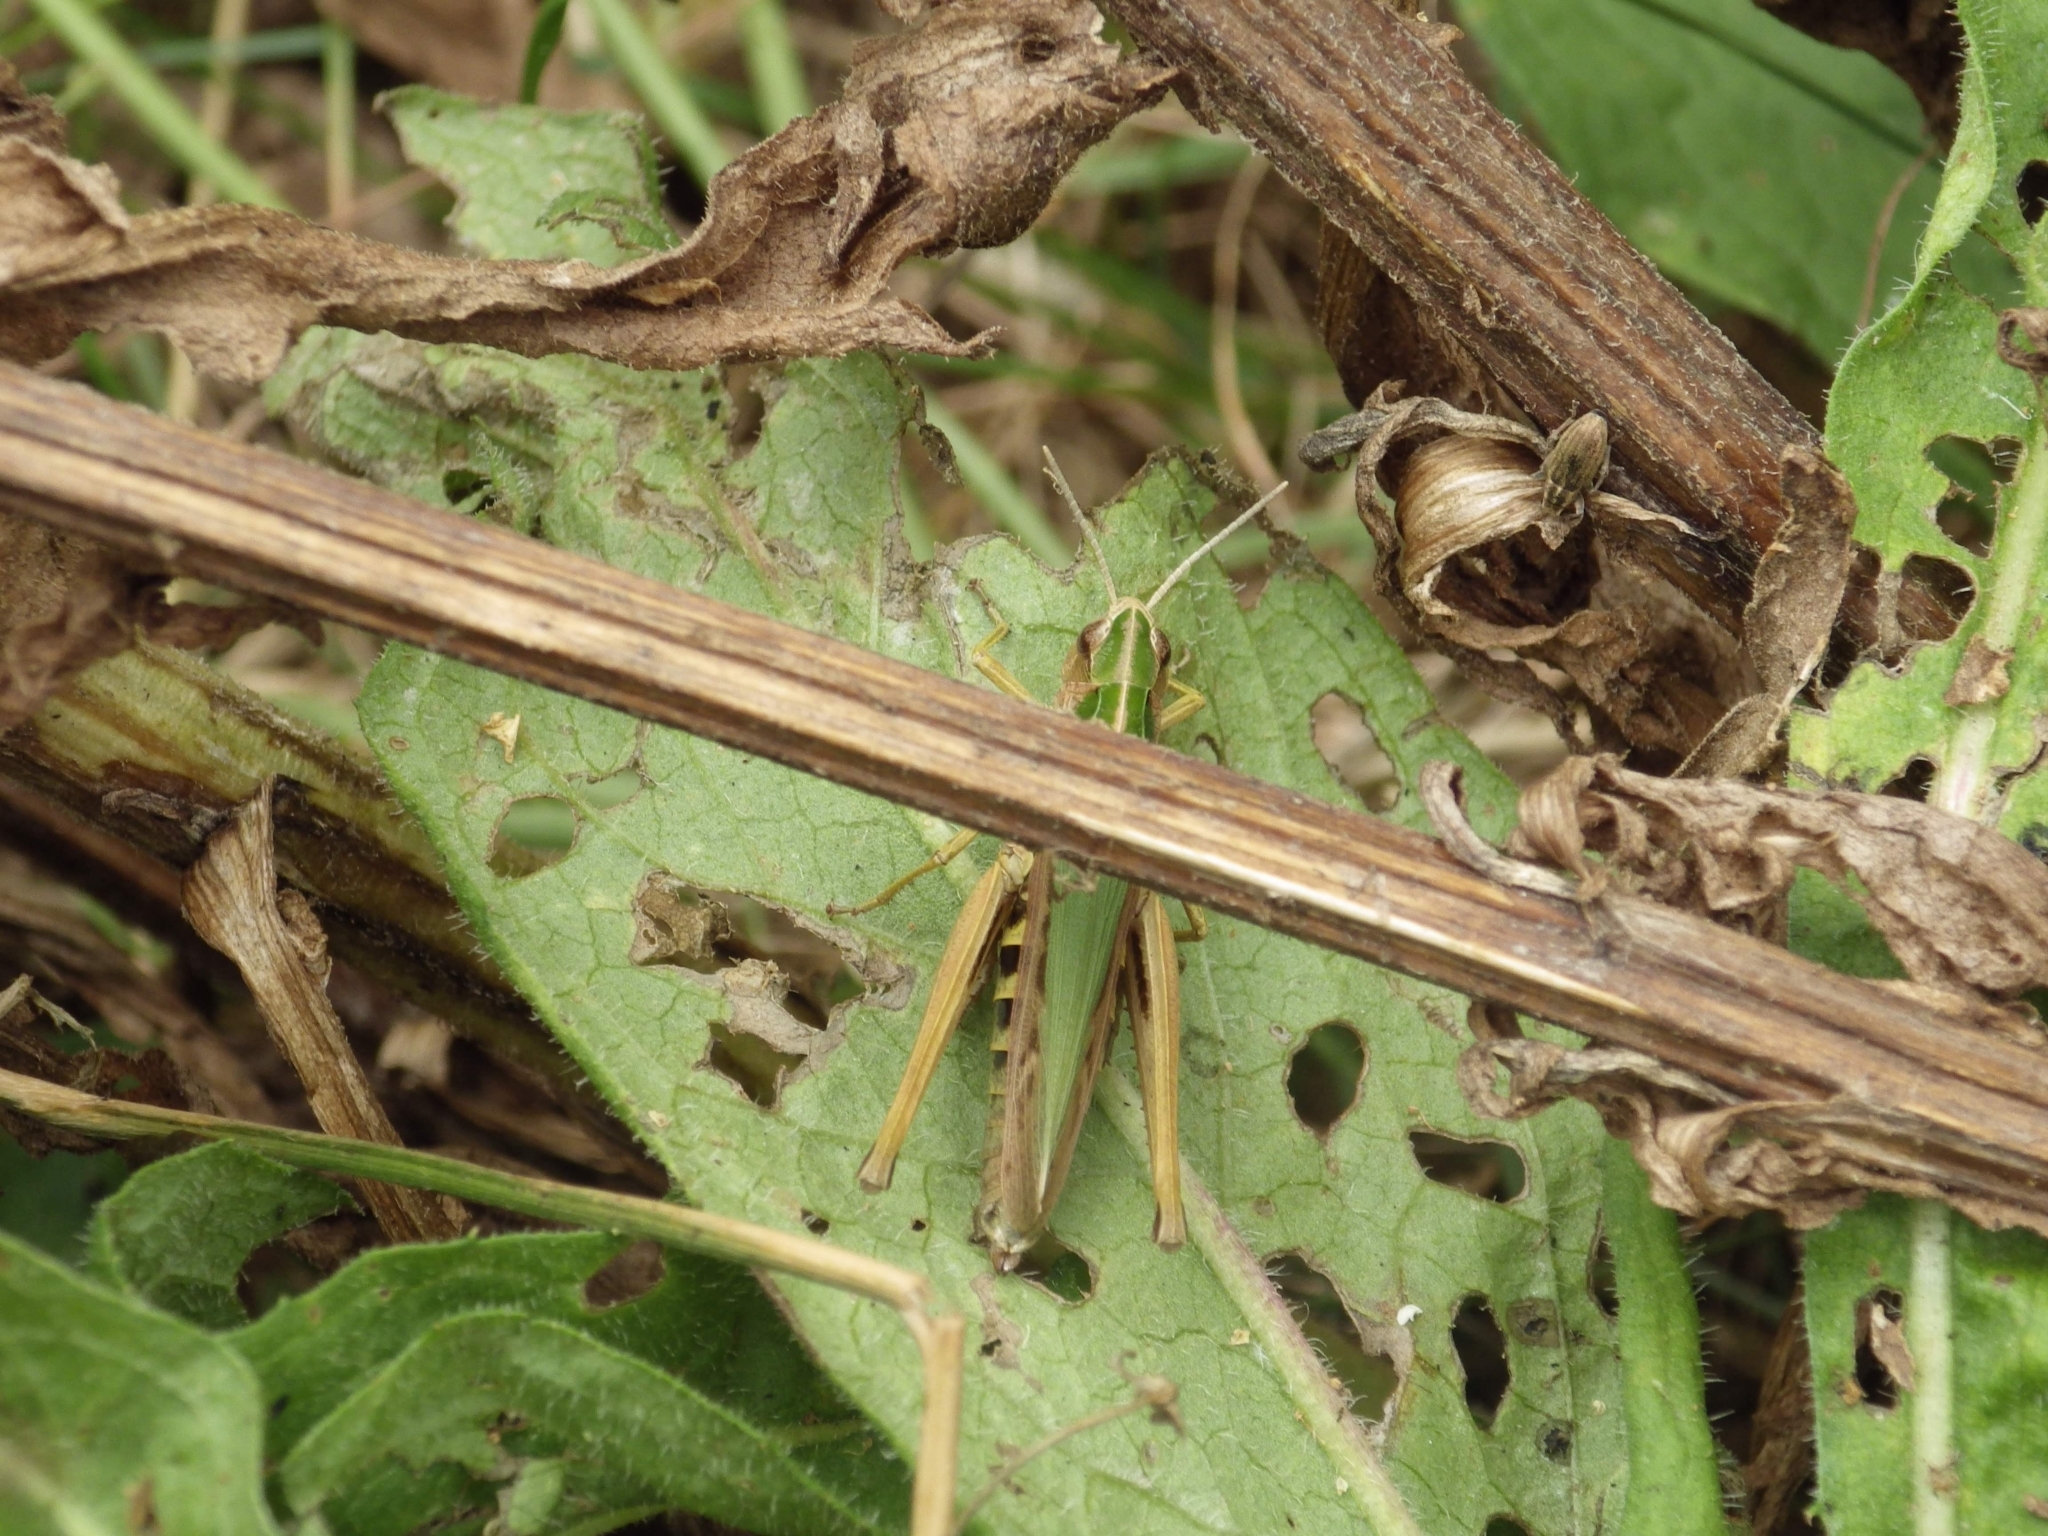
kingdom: Animalia
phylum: Arthropoda
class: Insecta
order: Orthoptera
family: Acrididae
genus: Omocestus
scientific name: Omocestus viridulus
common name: Common green grasshopper
